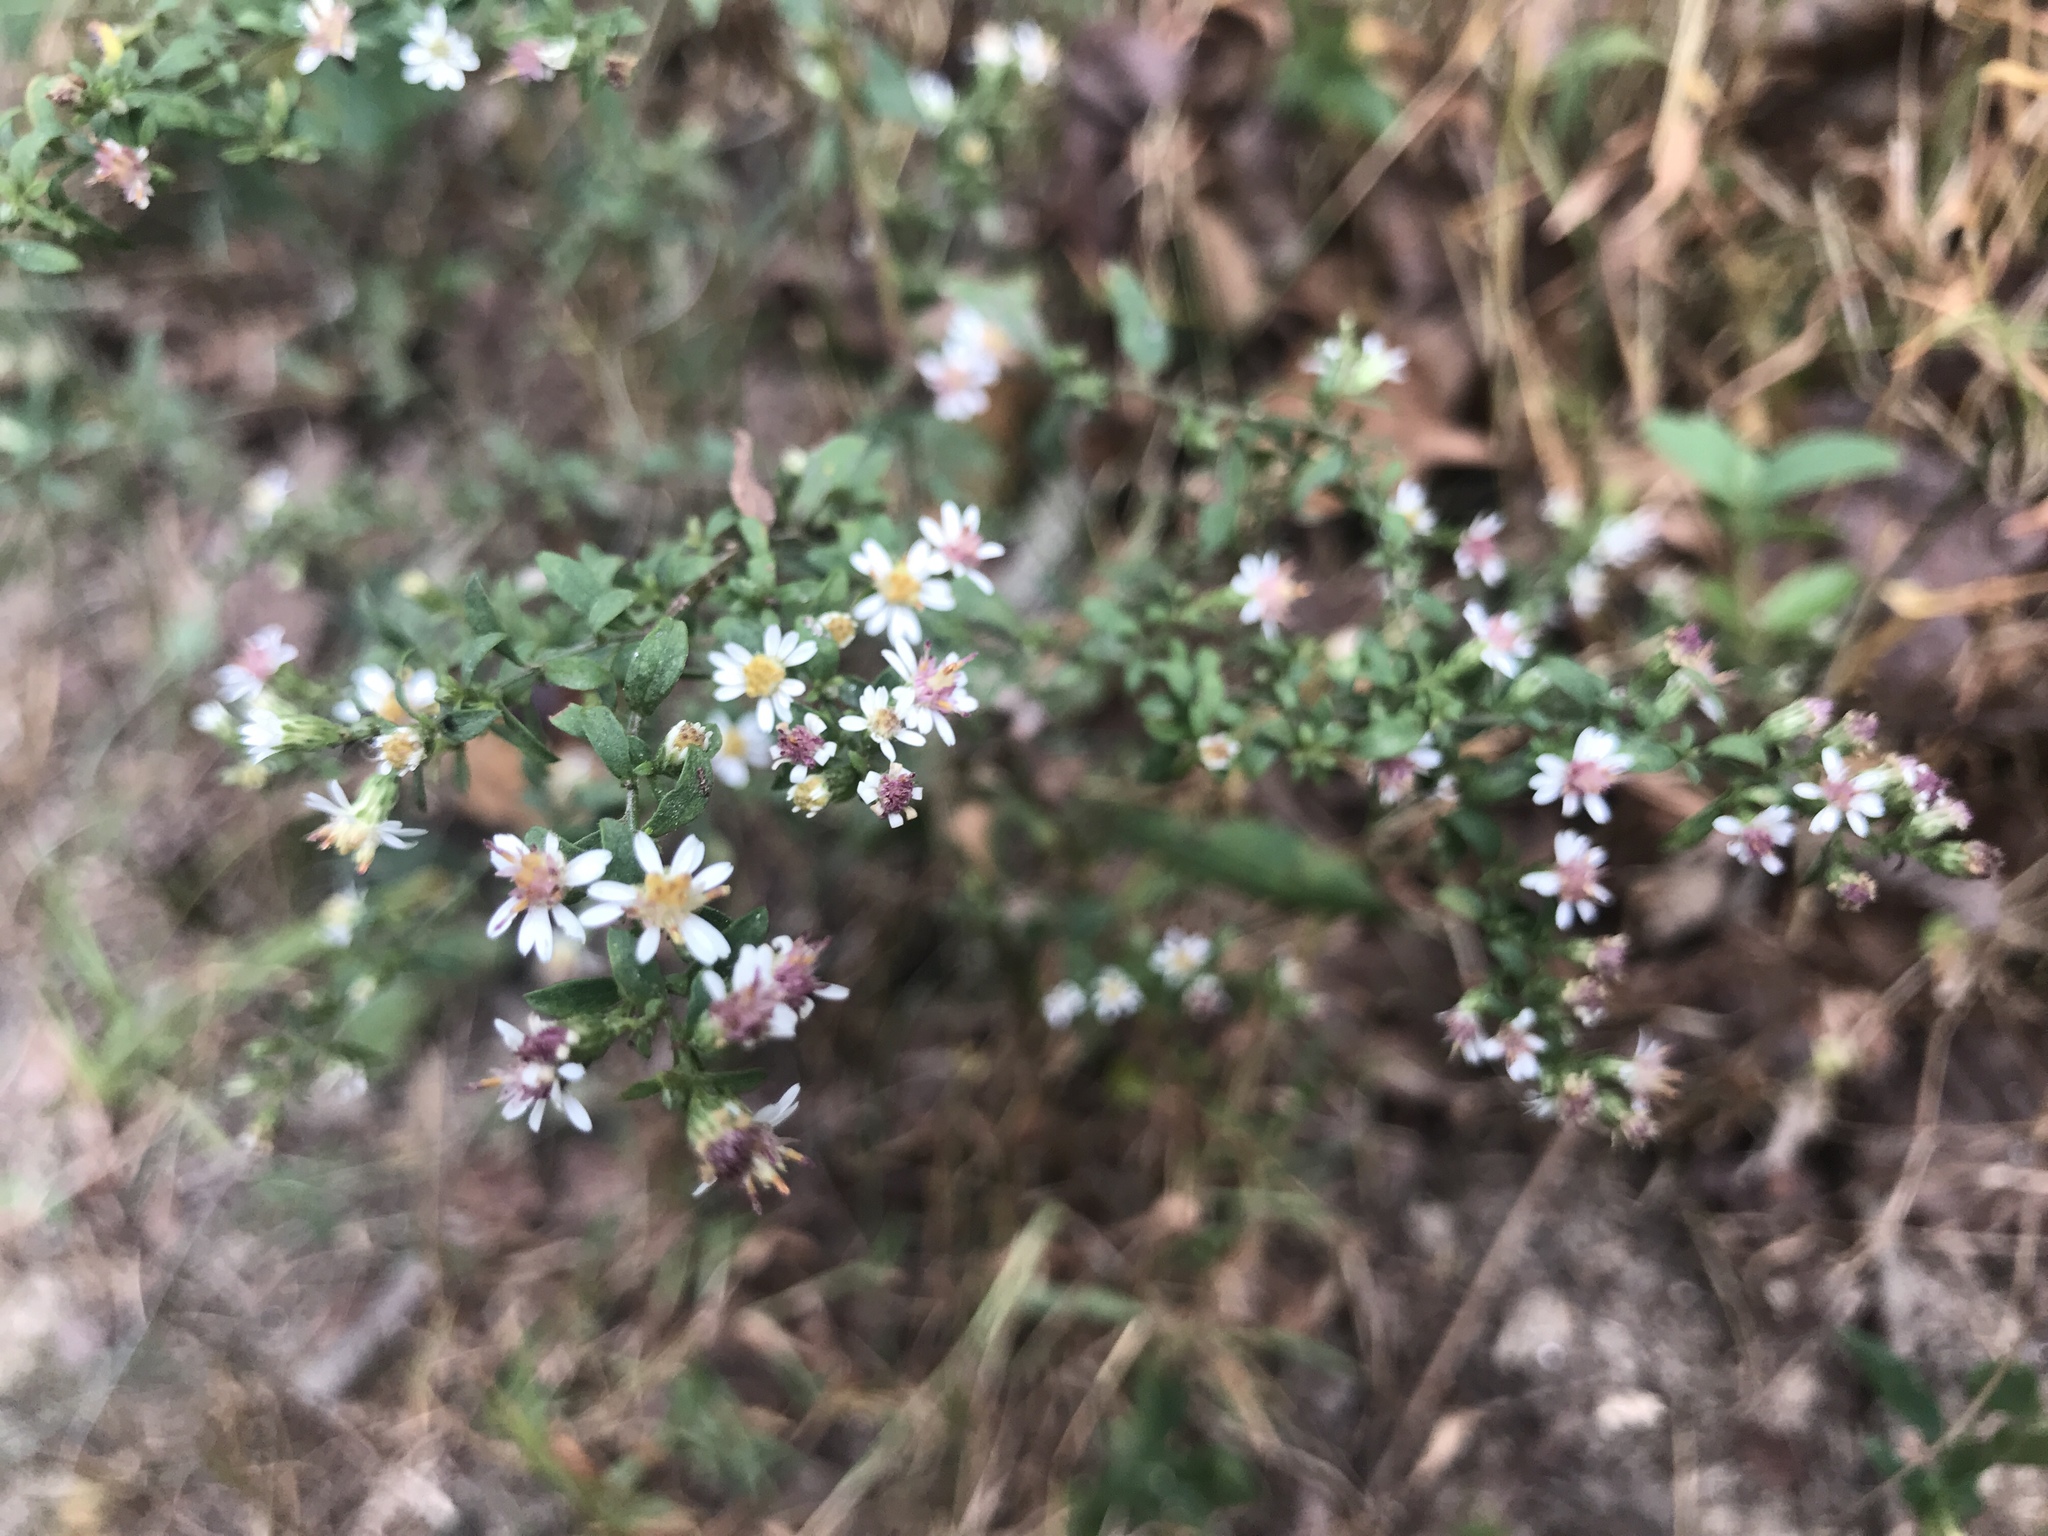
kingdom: Plantae
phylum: Tracheophyta
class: Magnoliopsida
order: Asterales
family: Asteraceae
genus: Symphyotrichum
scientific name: Symphyotrichum lateriflorum
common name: Calico aster
